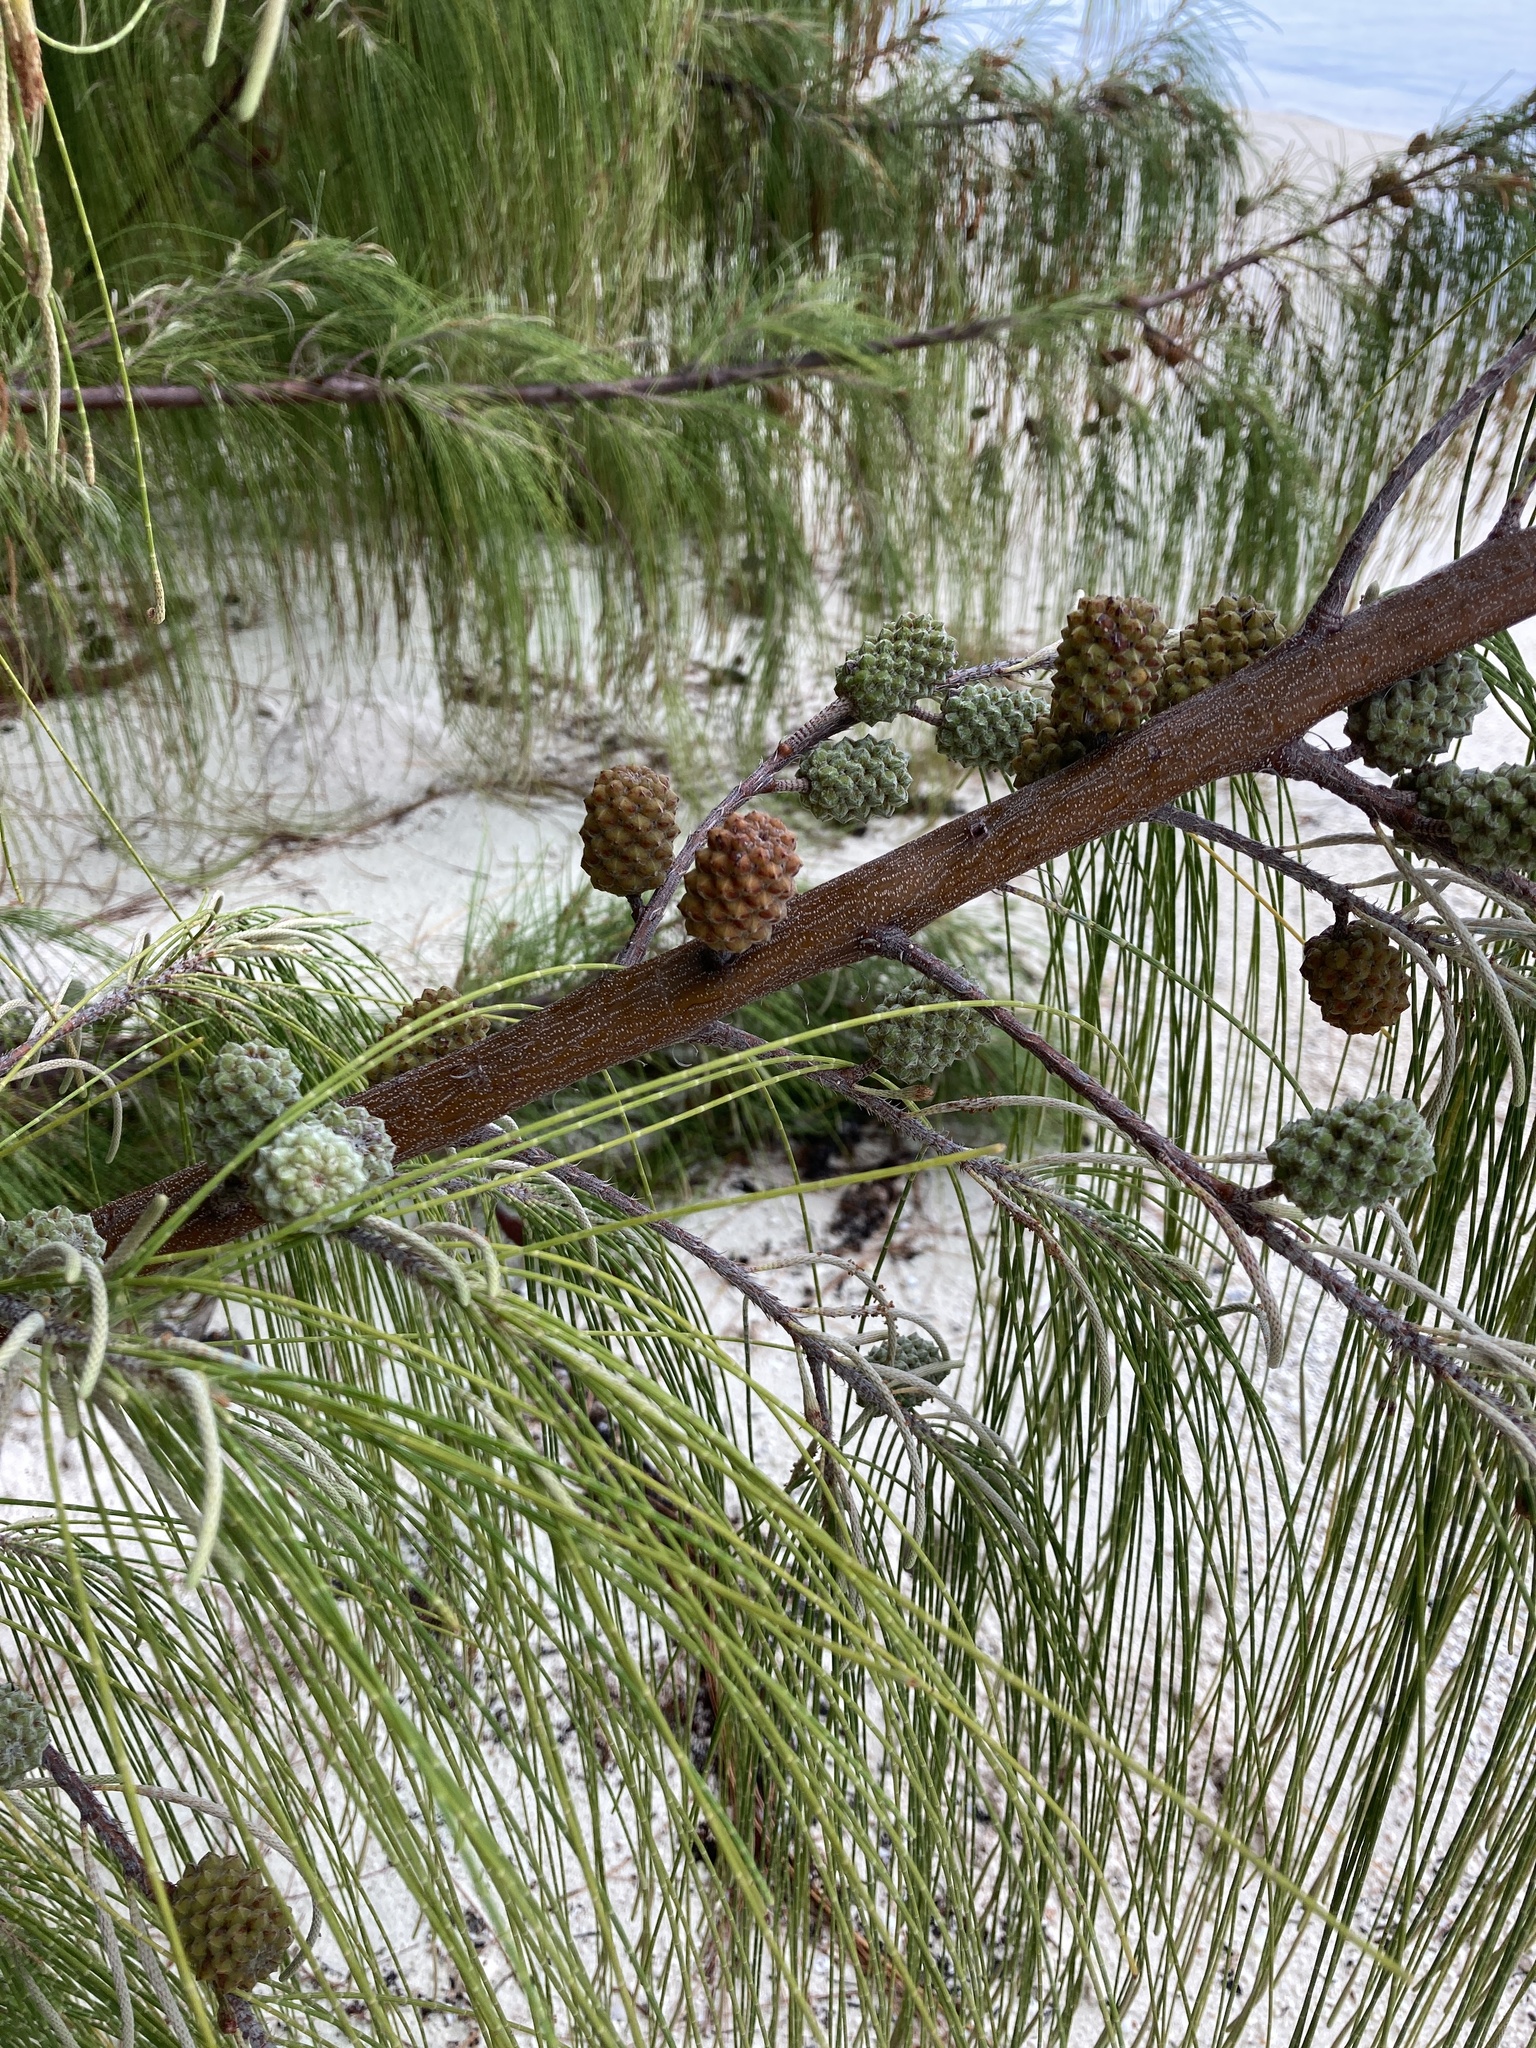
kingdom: Plantae
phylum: Tracheophyta
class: Magnoliopsida
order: Fagales
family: Casuarinaceae
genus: Casuarina
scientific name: Casuarina equisetifolia
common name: Beach sheoak
